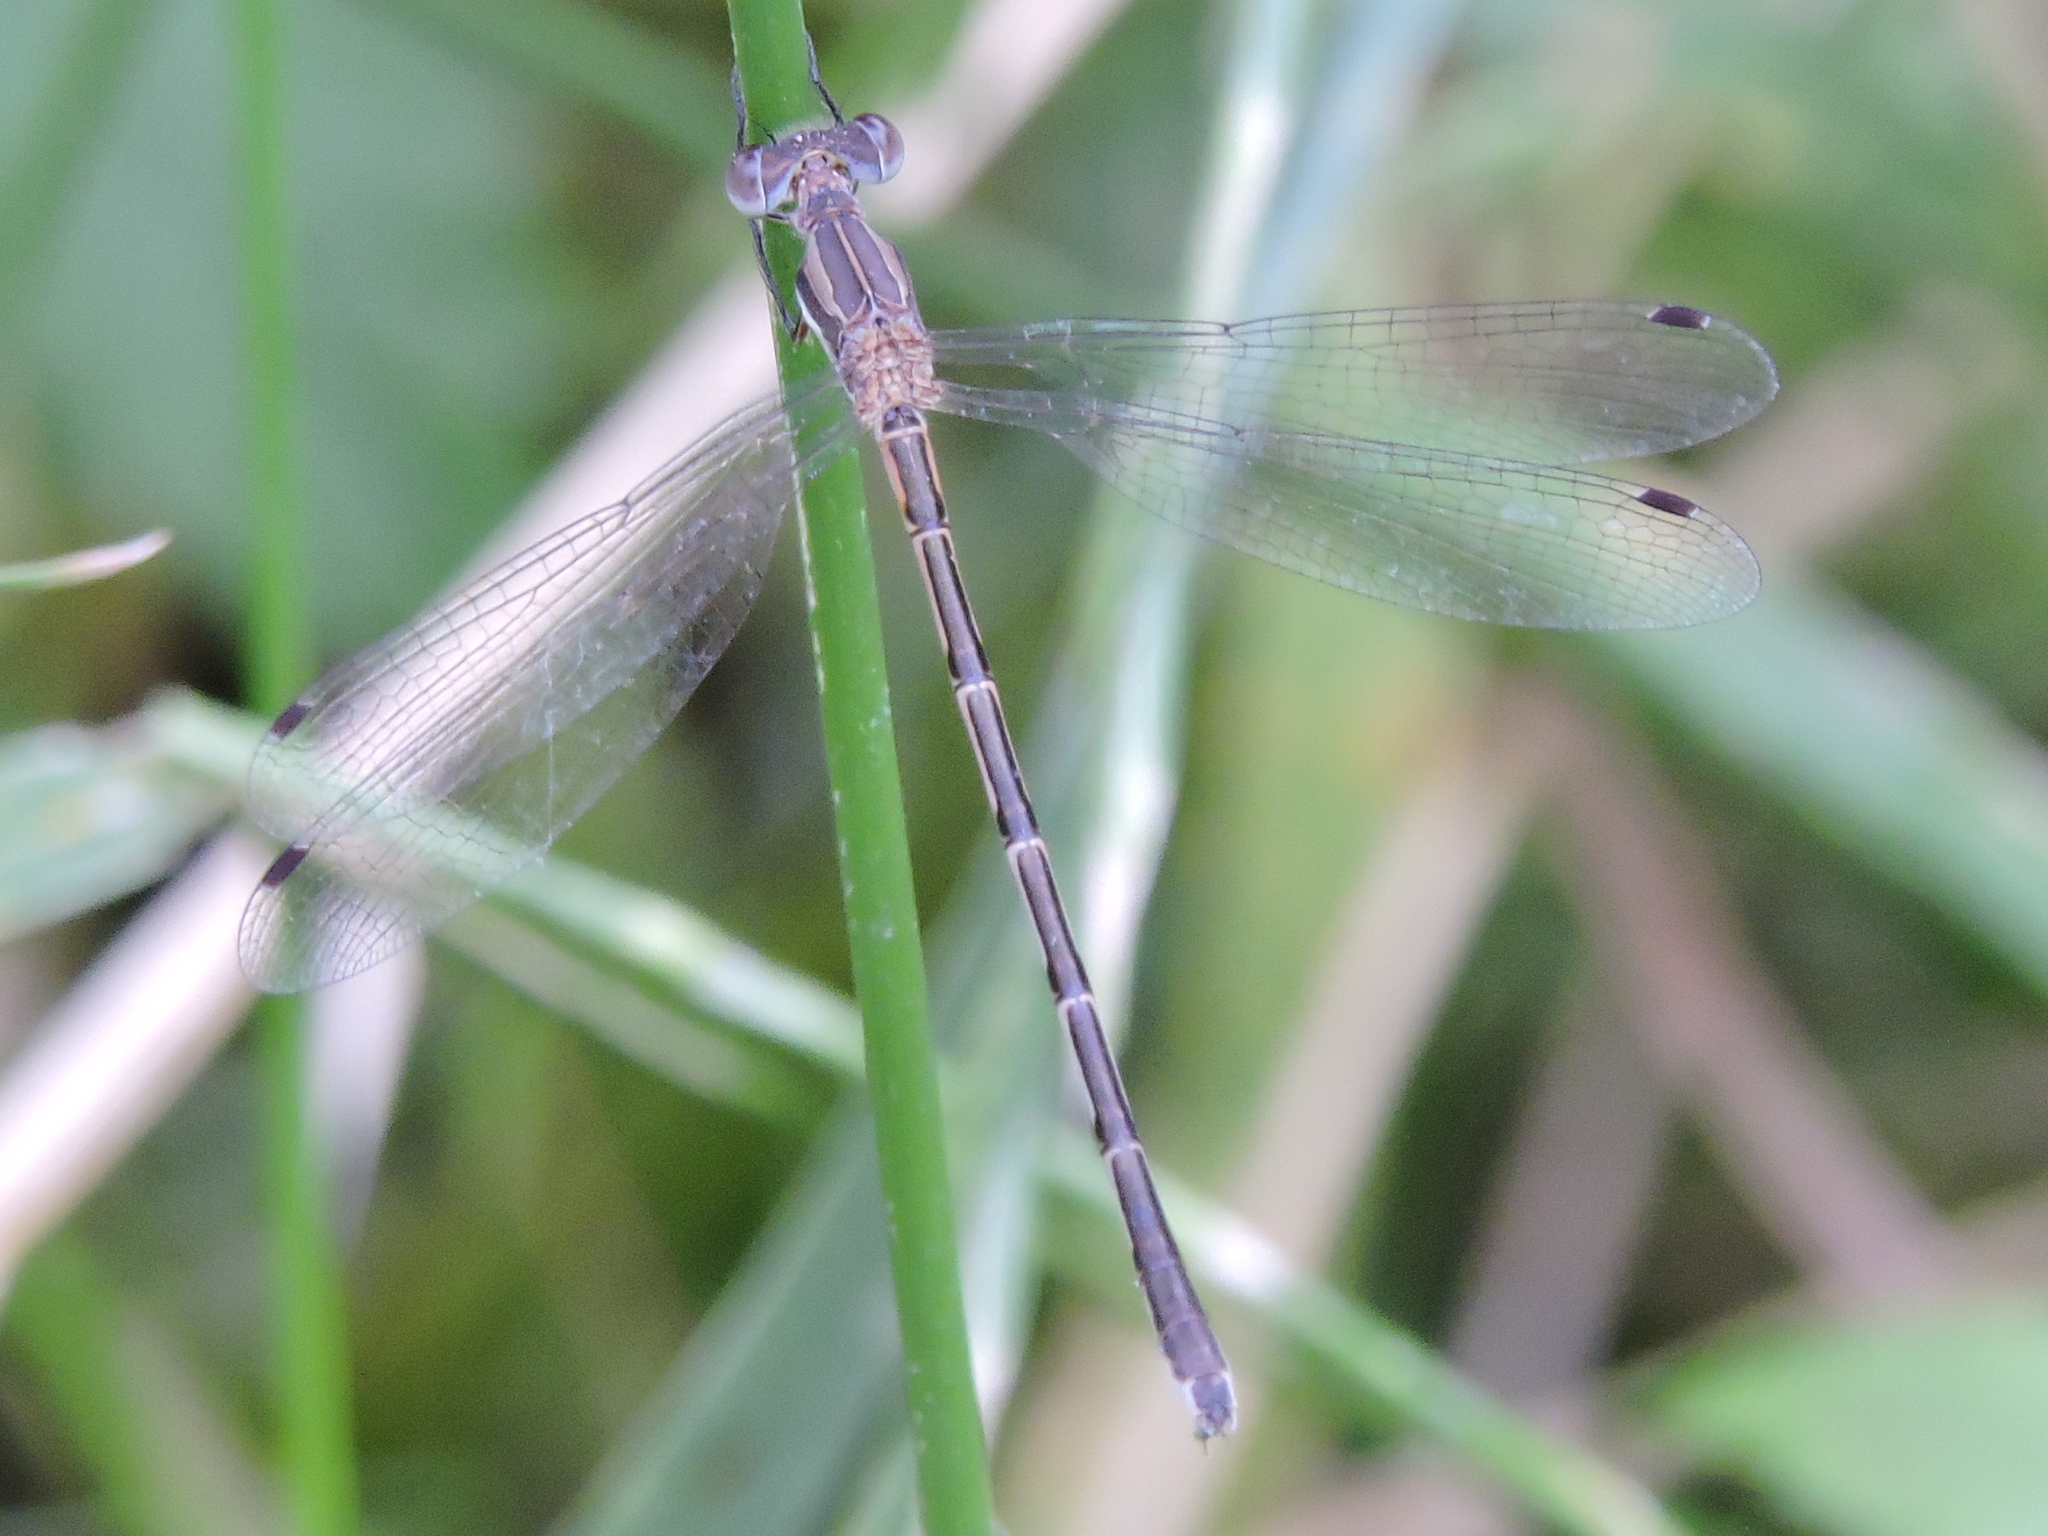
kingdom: Animalia
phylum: Arthropoda
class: Insecta
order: Odonata
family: Lestidae
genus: Lestes
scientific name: Lestes australis
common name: Southern spreadwing
